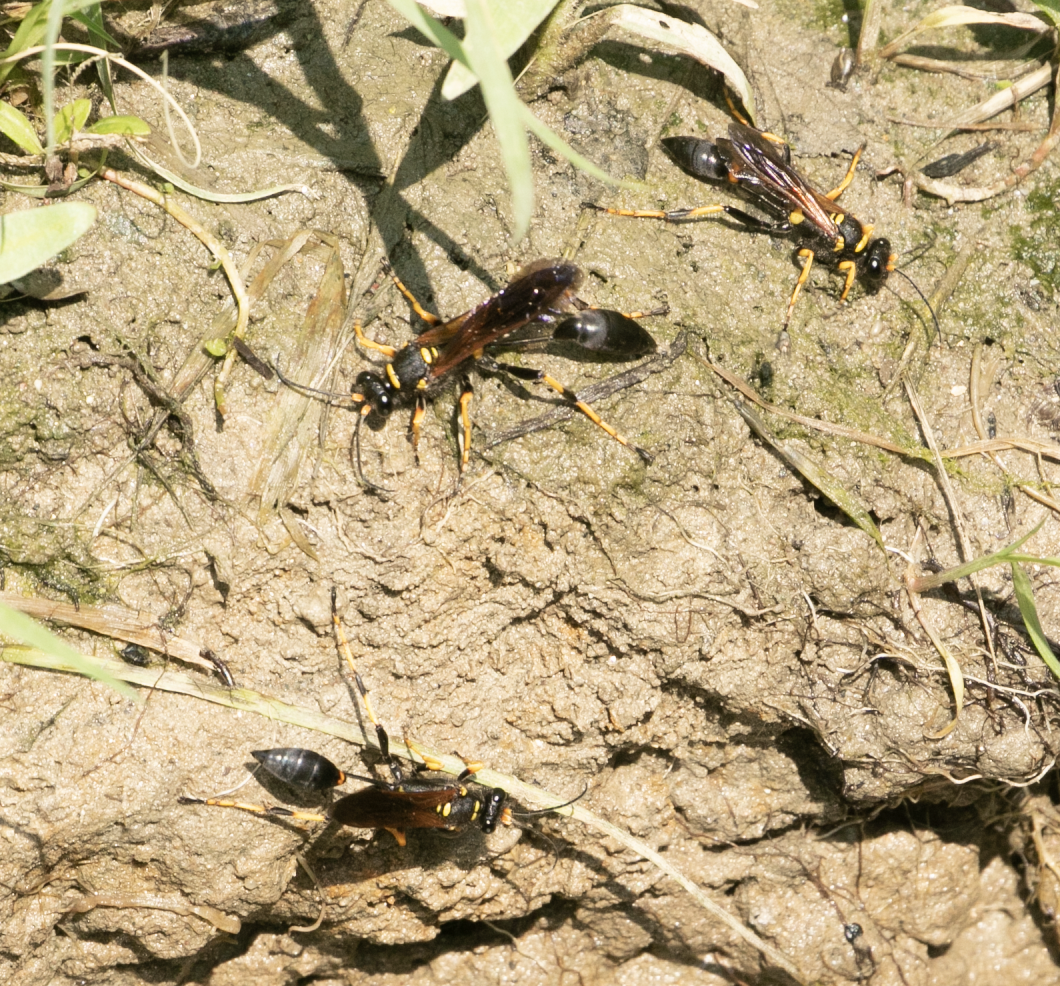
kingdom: Animalia
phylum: Arthropoda
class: Insecta
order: Hymenoptera
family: Sphecidae
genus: Sceliphron
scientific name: Sceliphron caementarium
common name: Mud dauber
